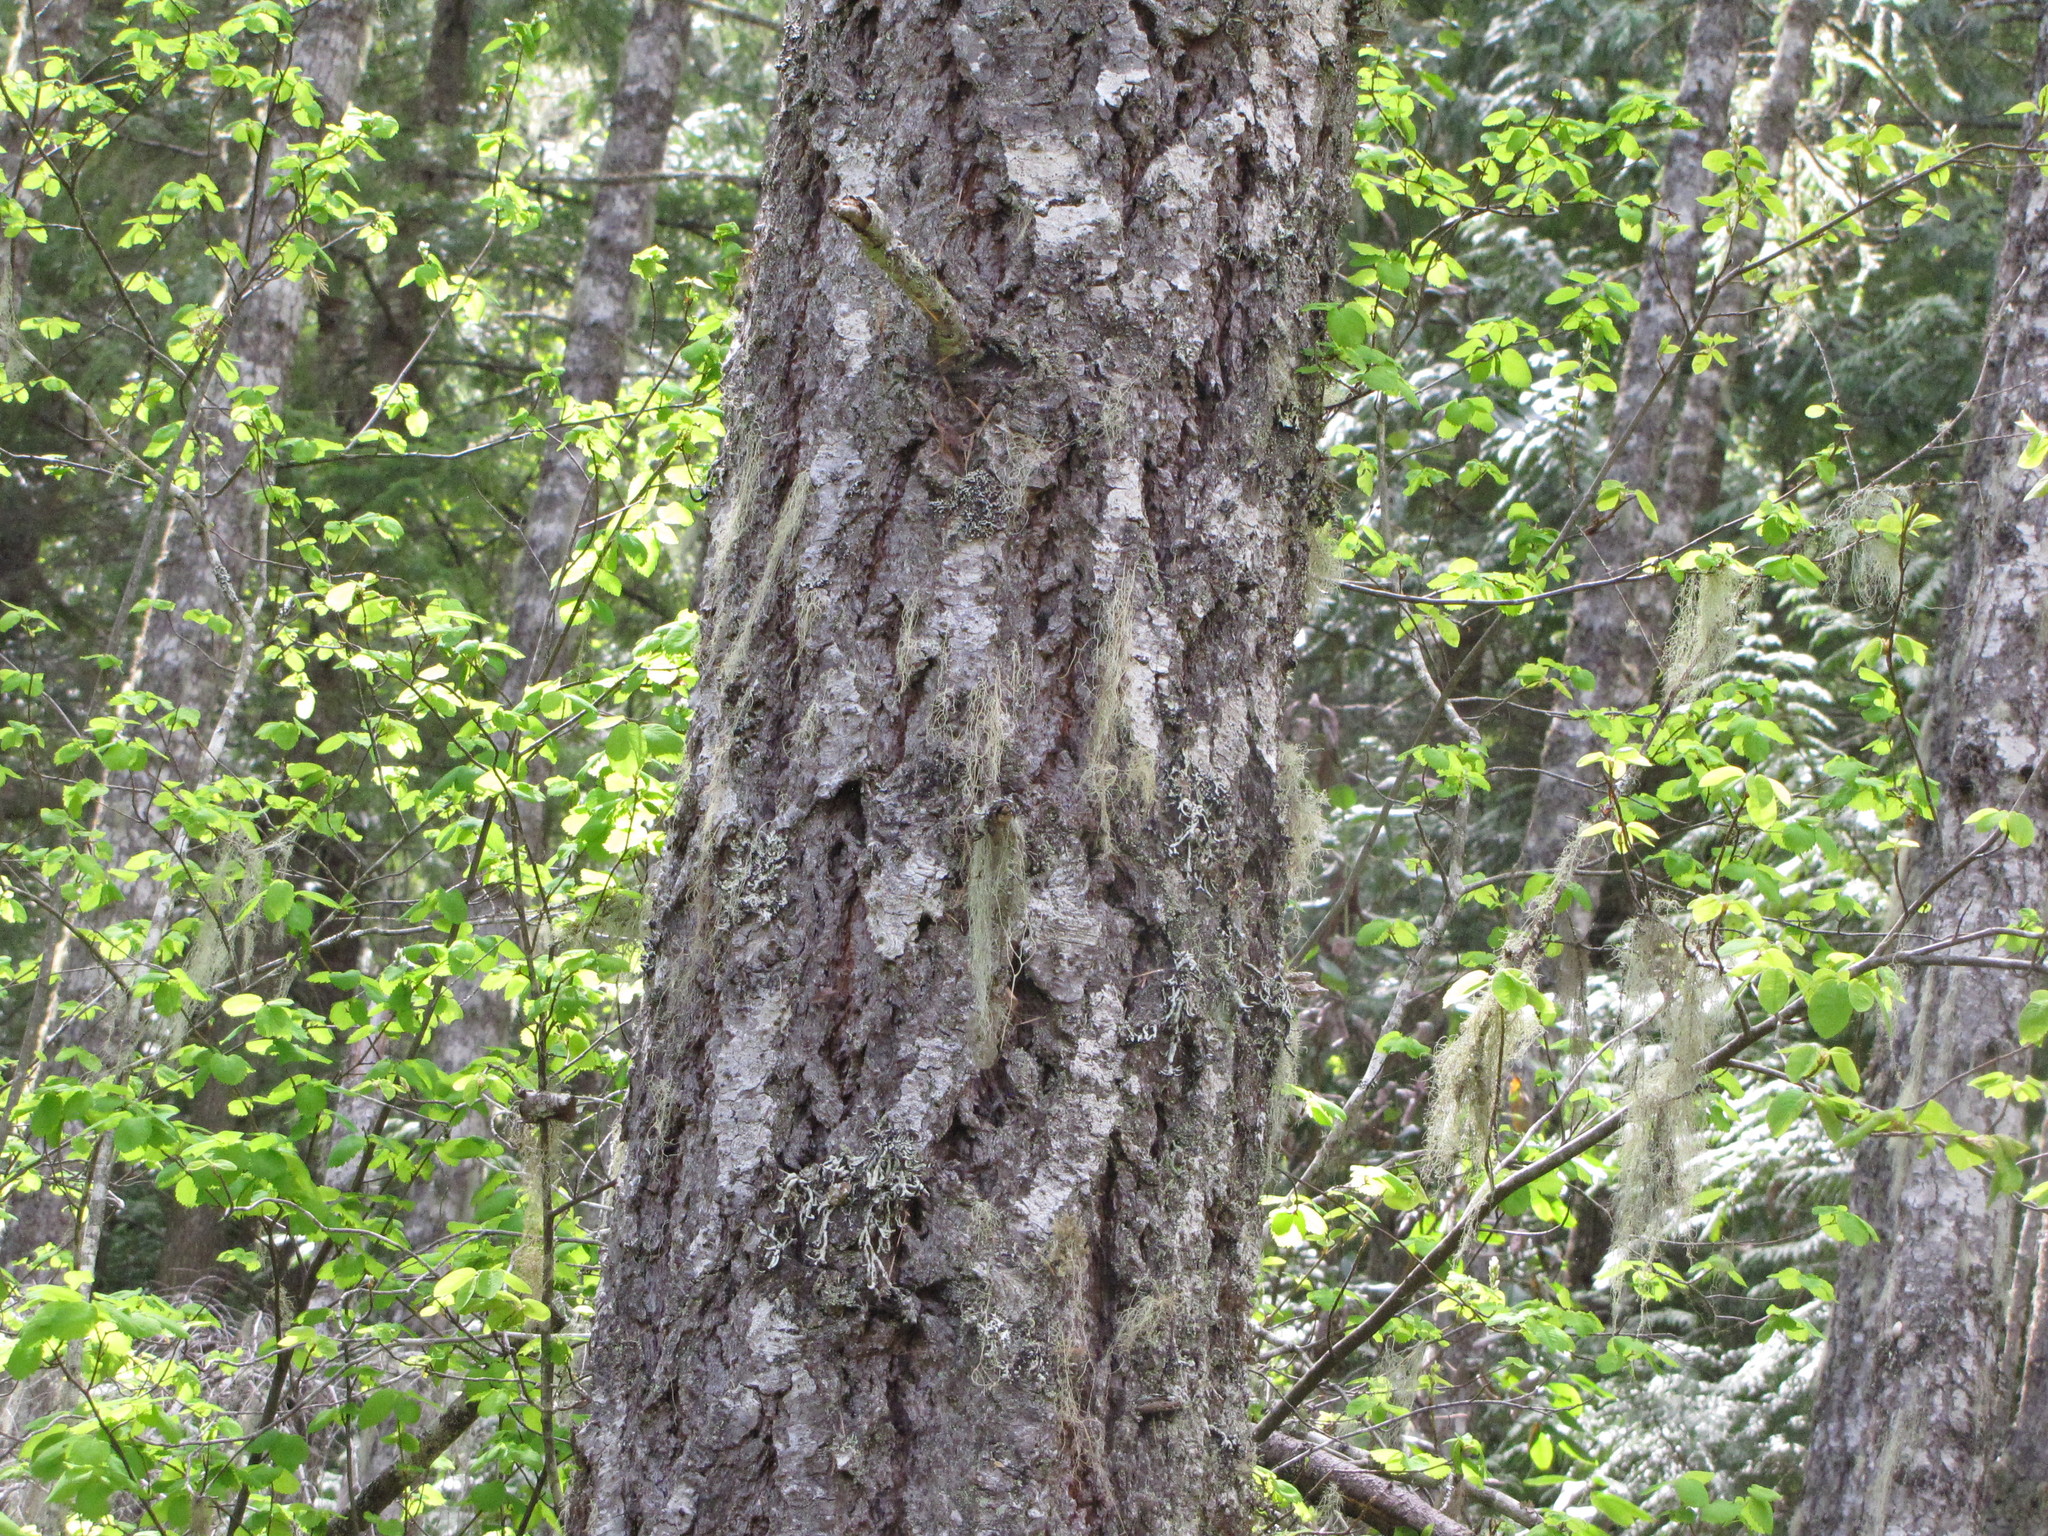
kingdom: Plantae
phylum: Tracheophyta
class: Pinopsida
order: Pinales
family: Pinaceae
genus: Pseudotsuga
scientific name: Pseudotsuga menziesii
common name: Douglas fir
